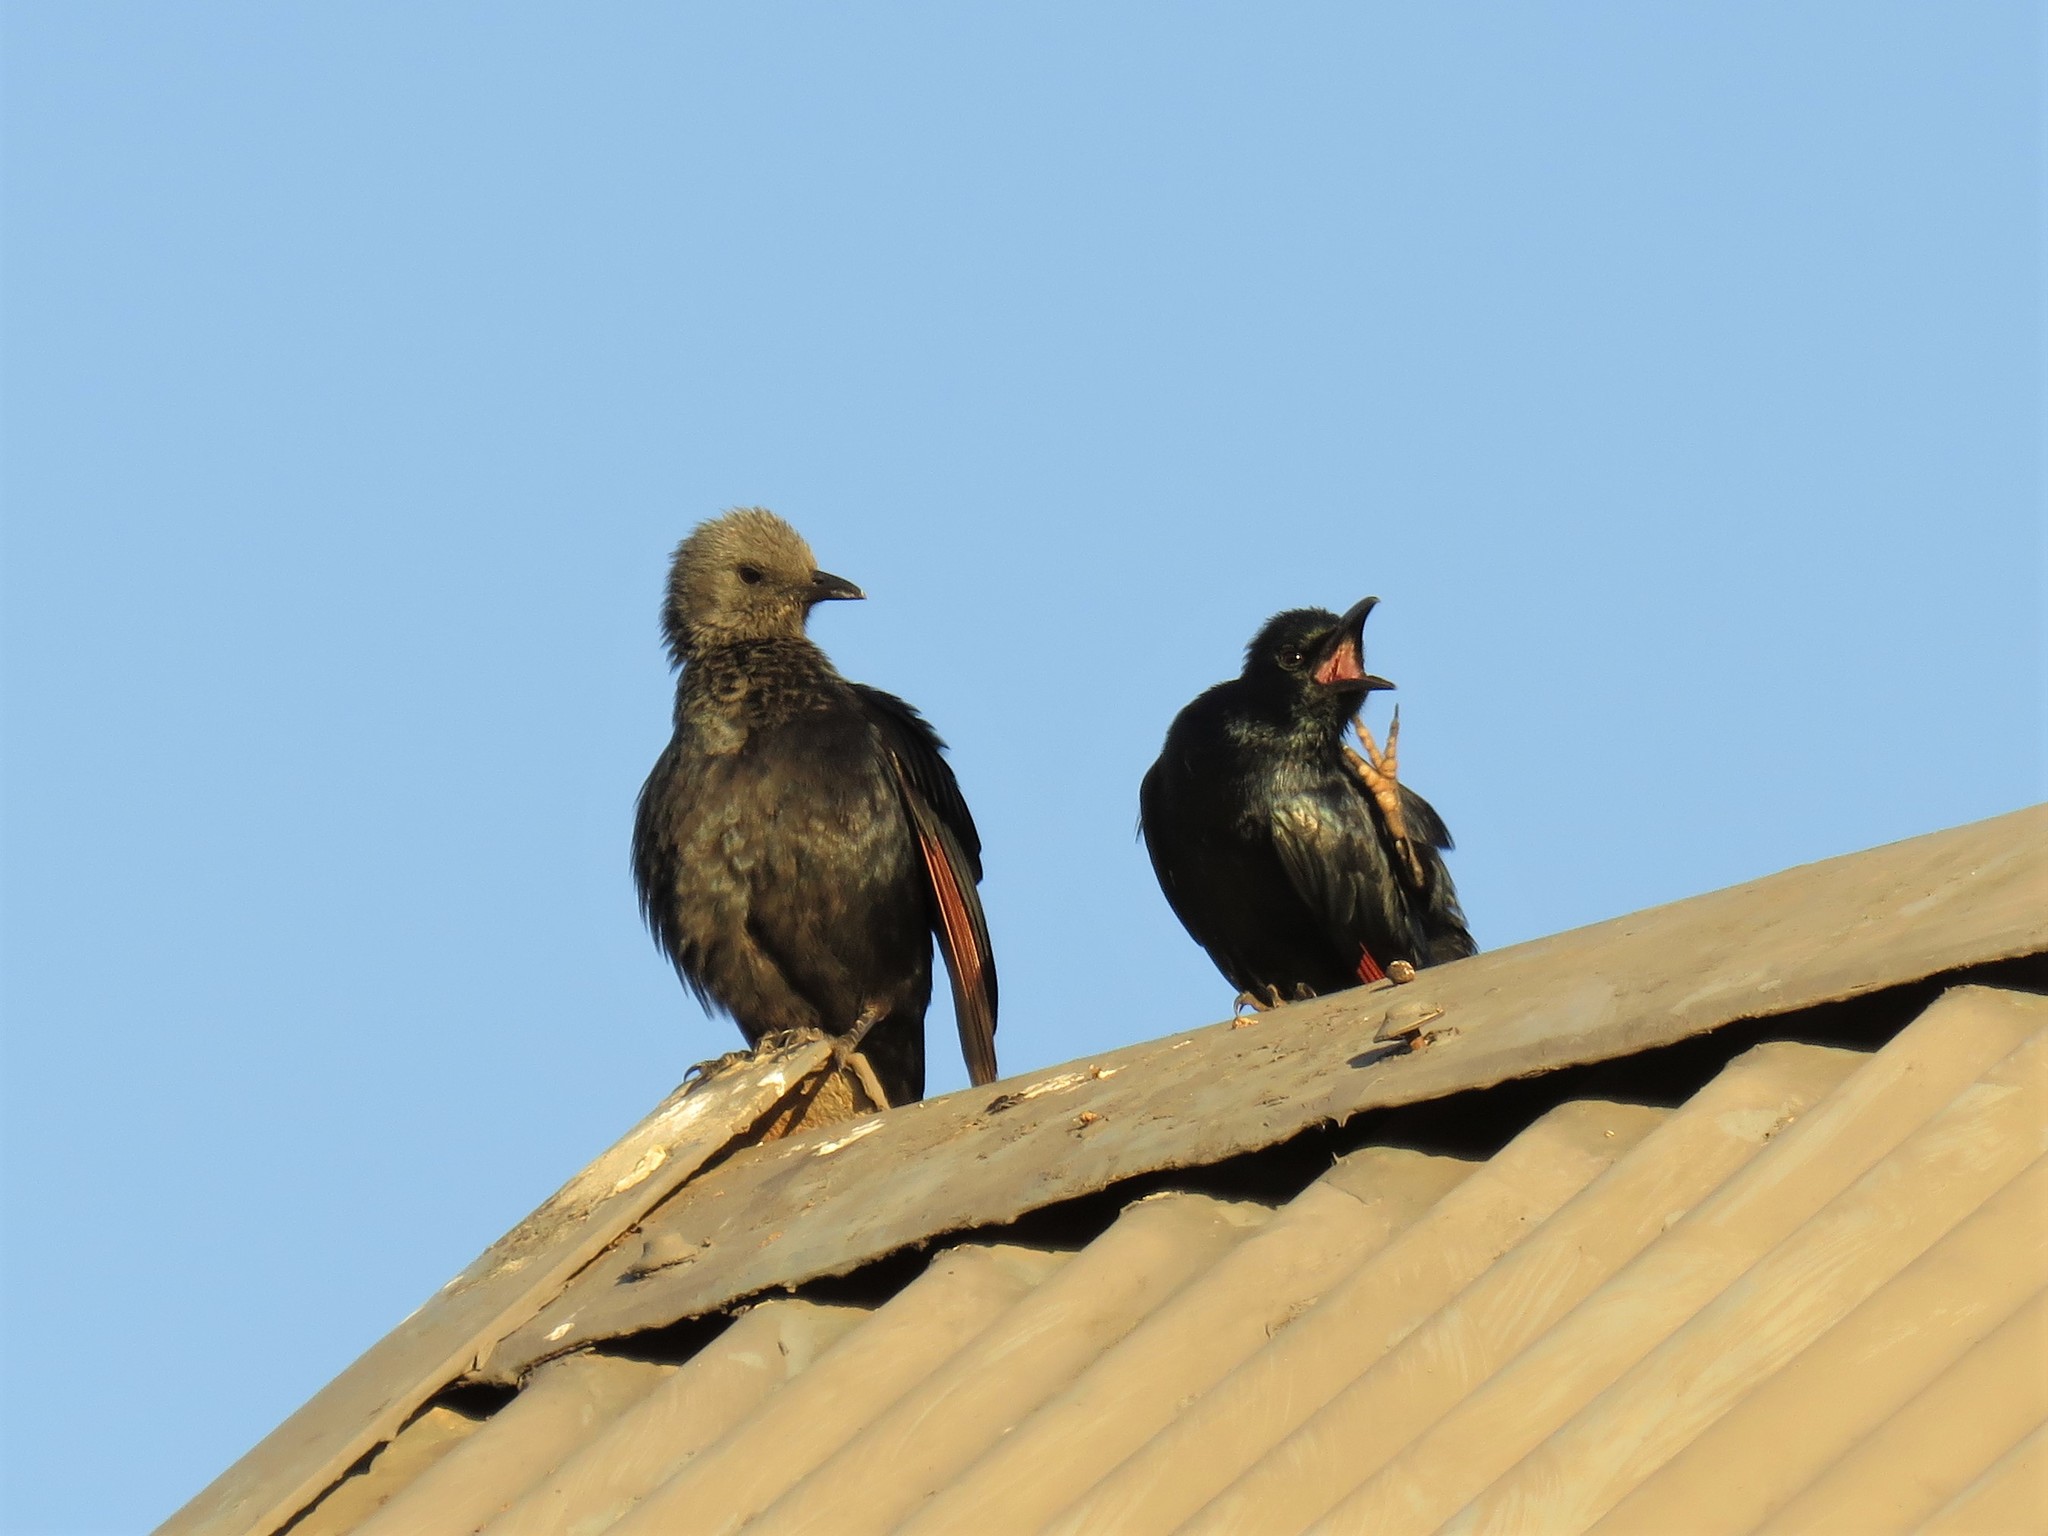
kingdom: Animalia
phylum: Chordata
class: Aves
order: Passeriformes
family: Sturnidae
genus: Onychognathus
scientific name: Onychognathus morio
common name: Red-winged starling
